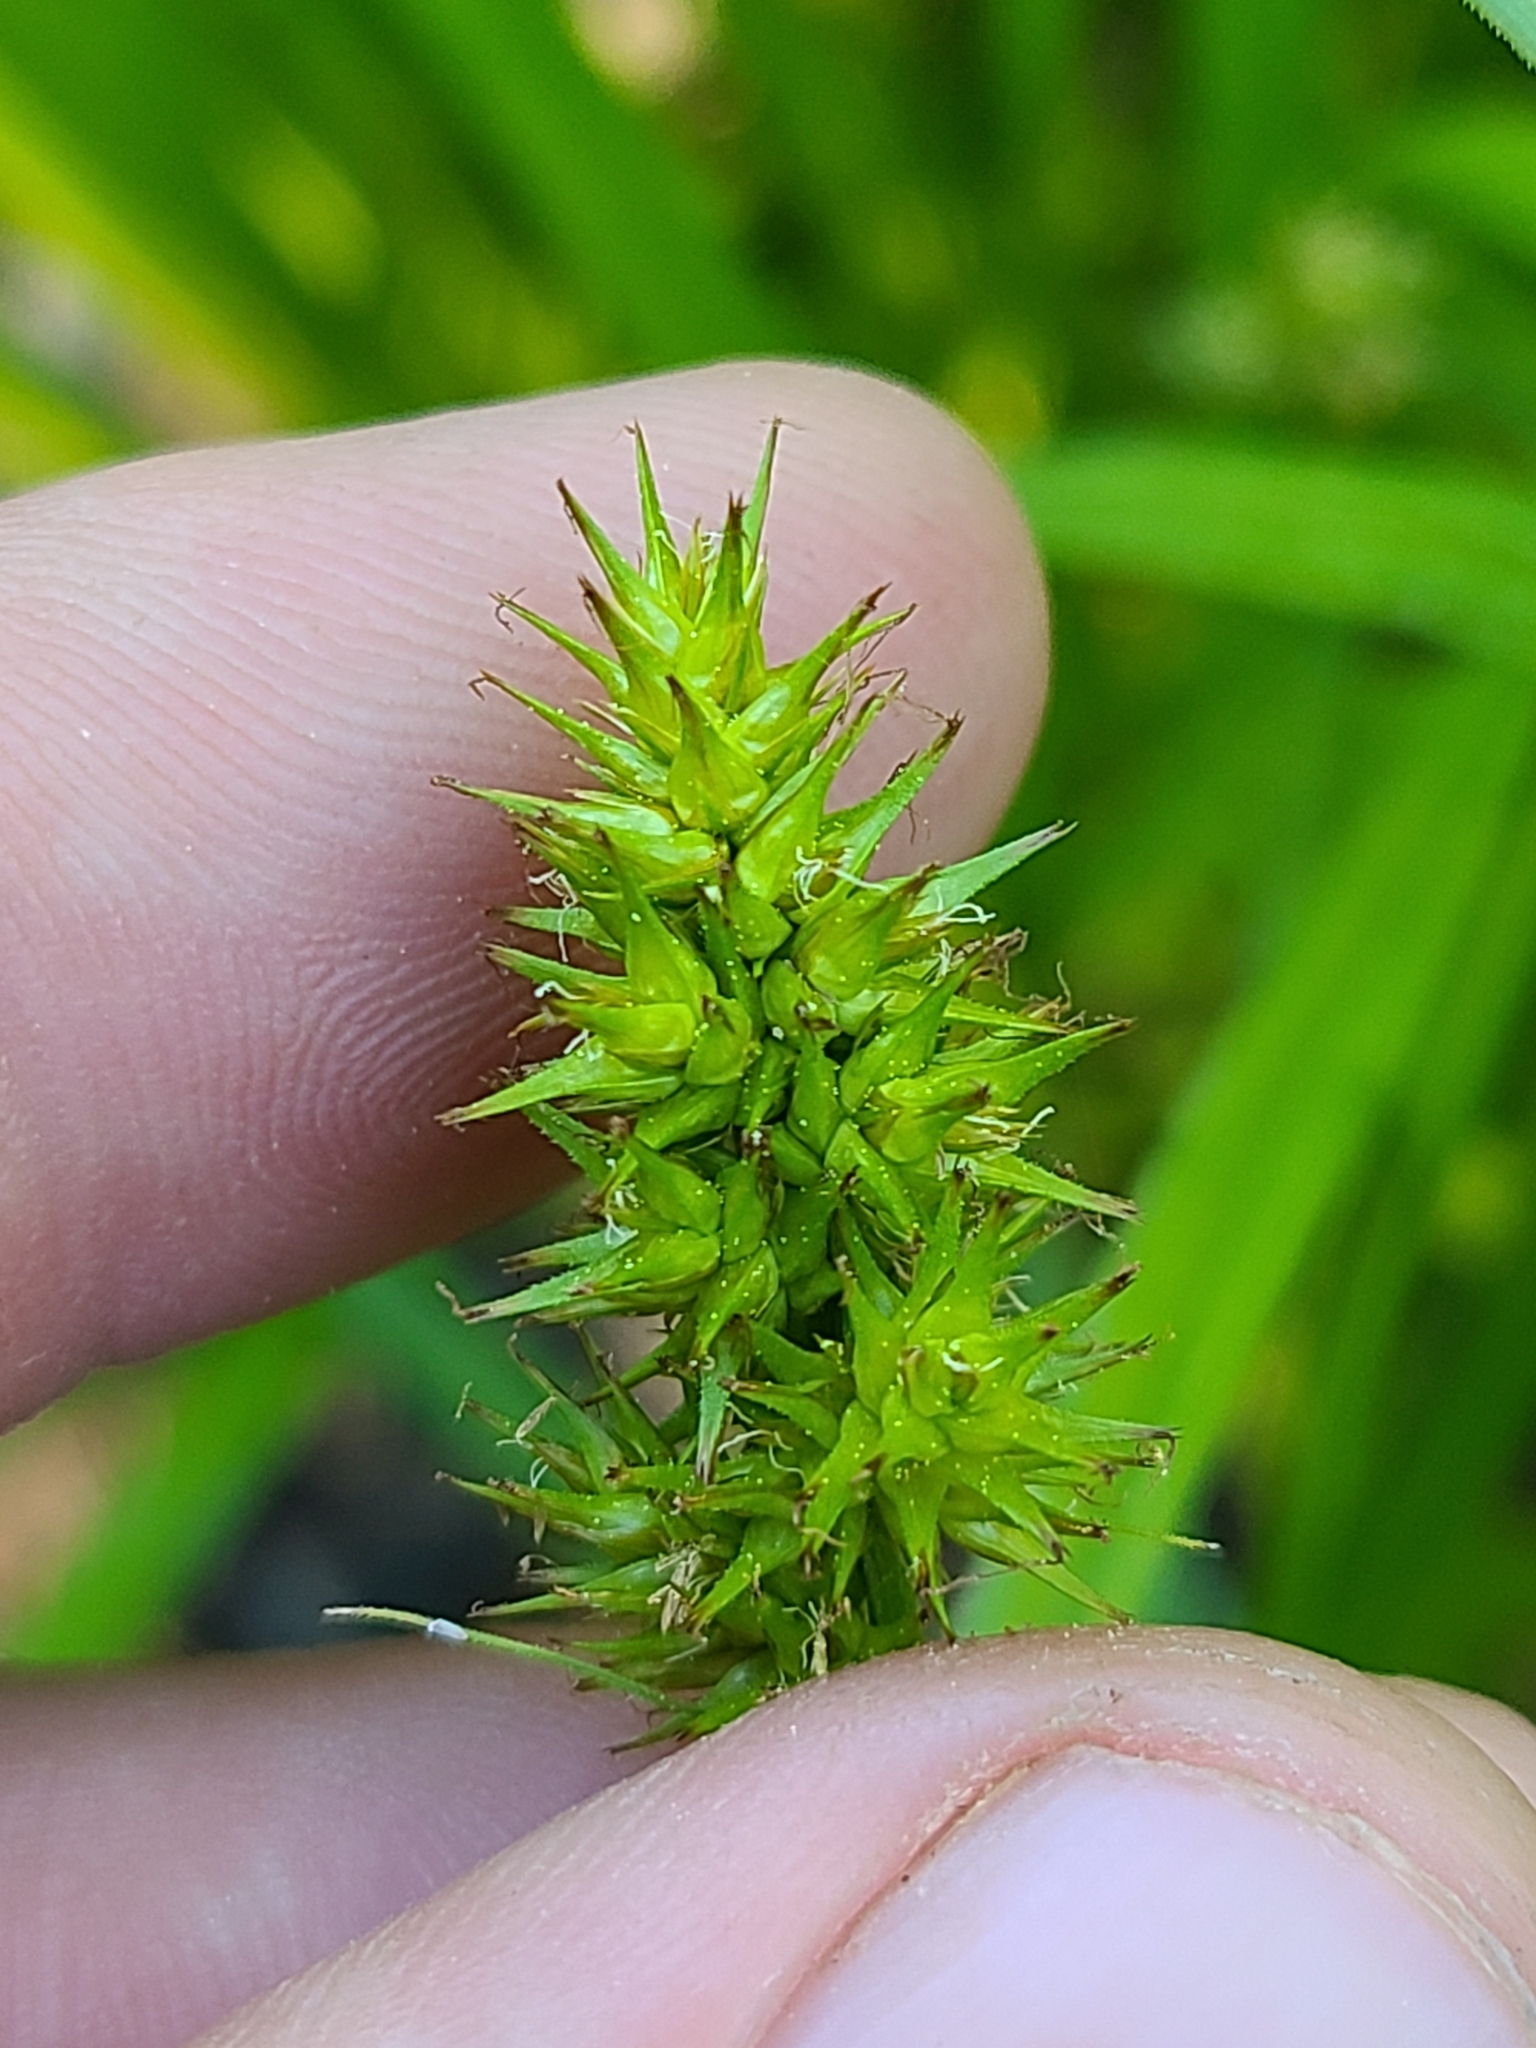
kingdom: Plantae
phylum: Tracheophyta
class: Liliopsida
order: Poales
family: Cyperaceae
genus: Carex
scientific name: Carex laevivaginata
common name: Smooth-sheathed fox sedge
